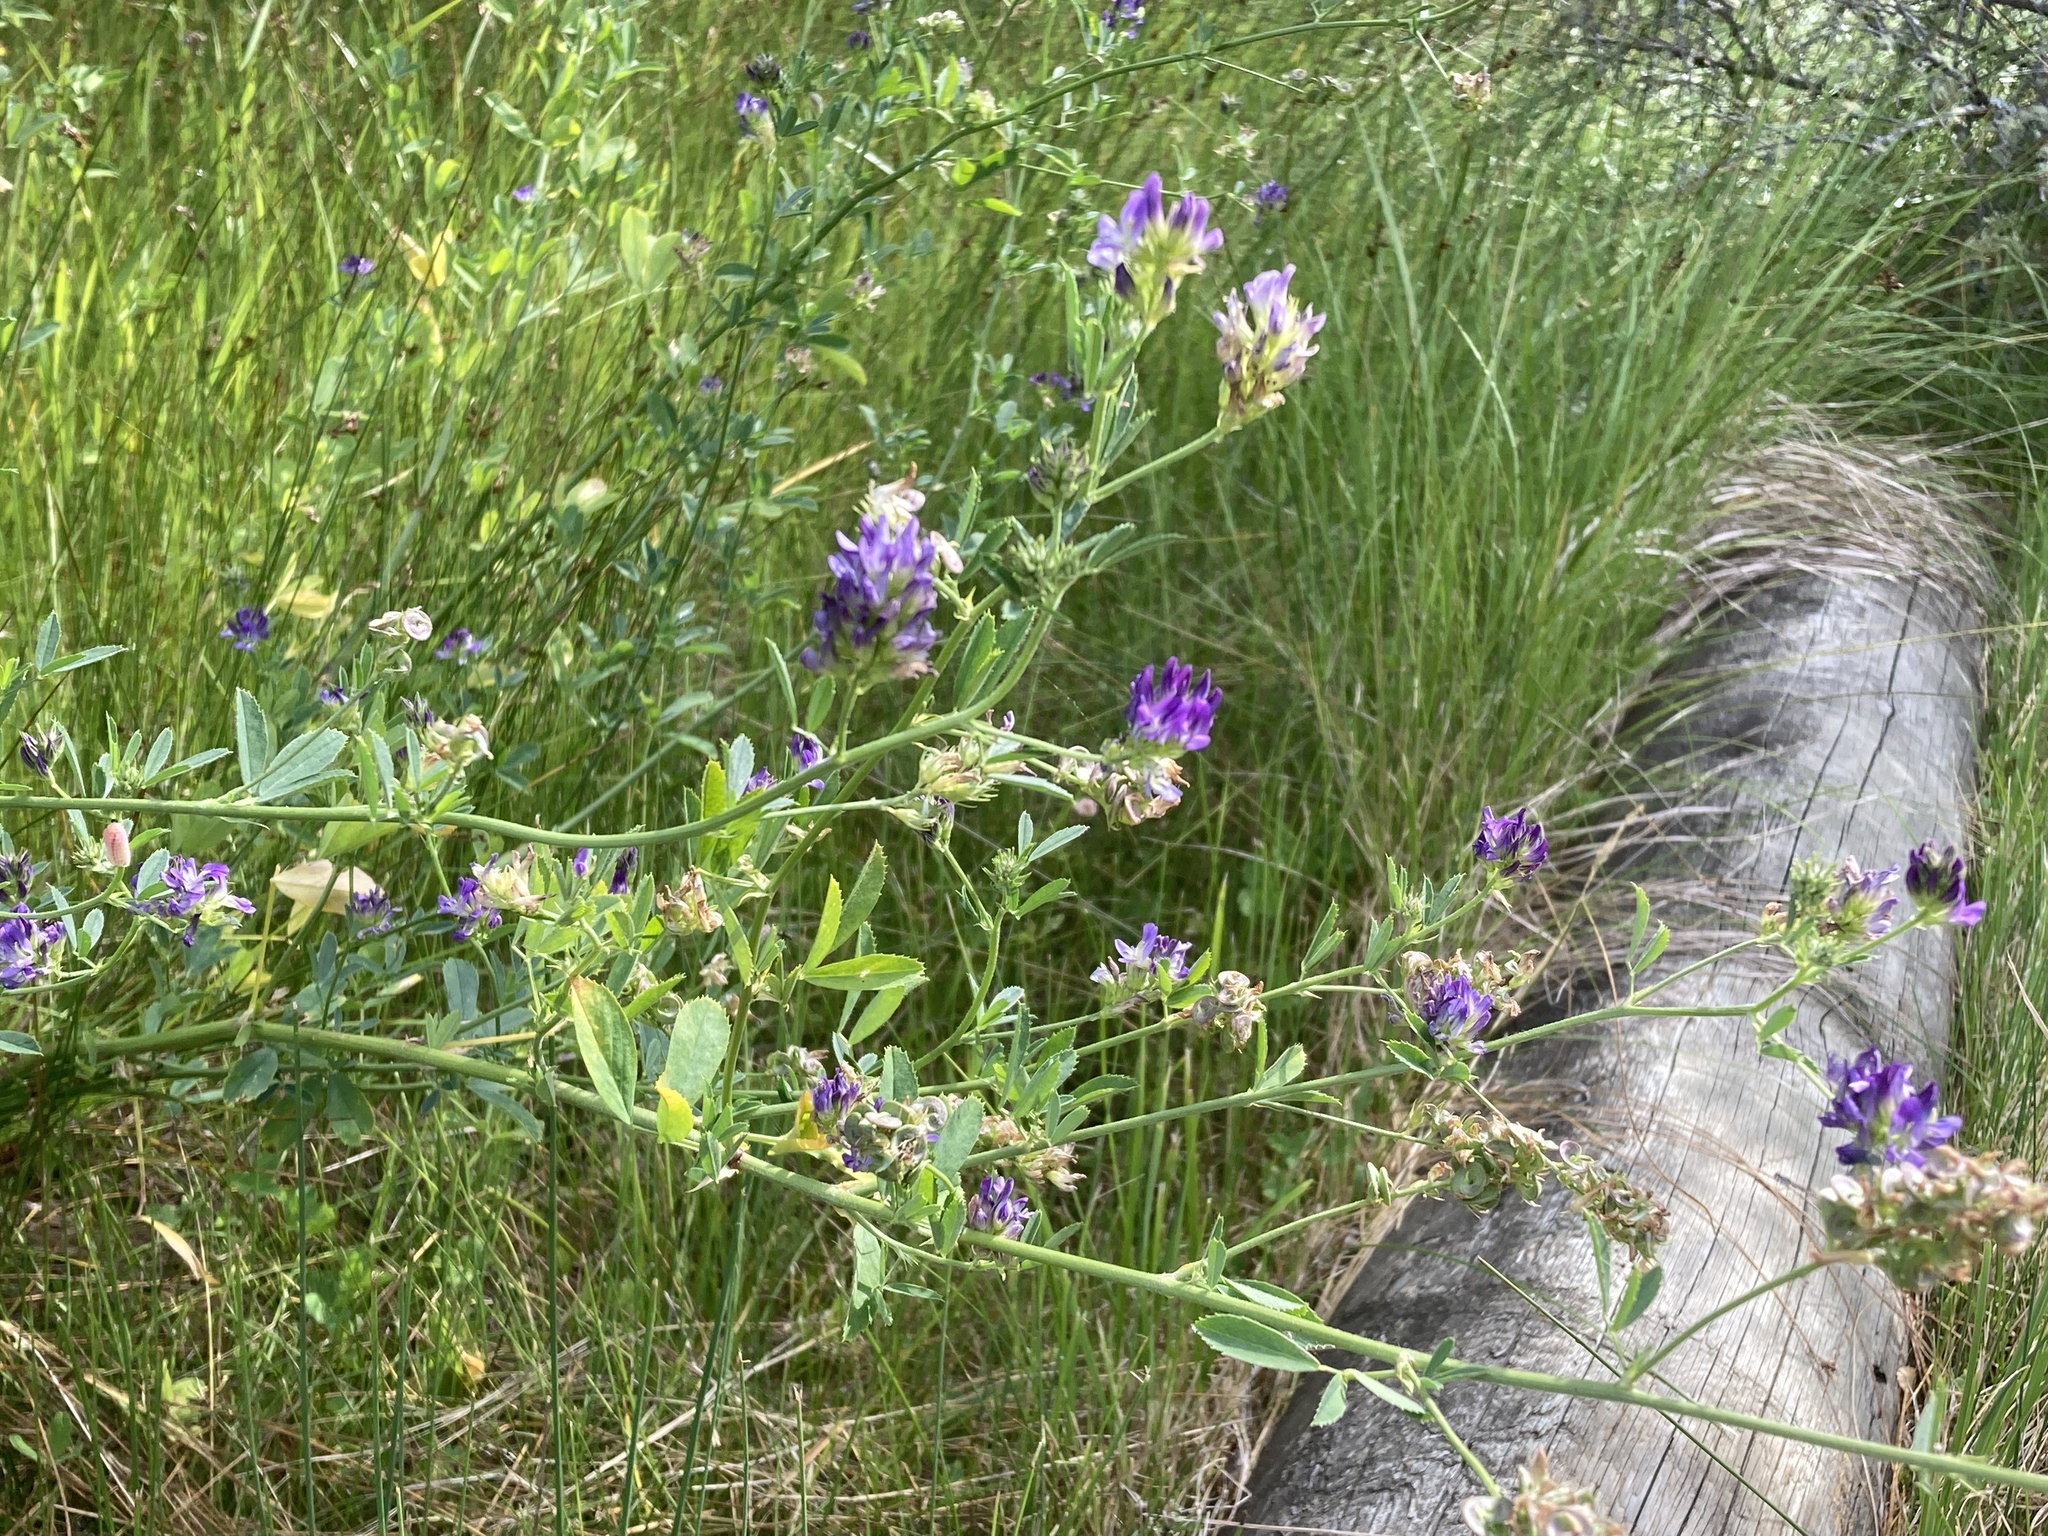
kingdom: Plantae
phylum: Tracheophyta
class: Magnoliopsida
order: Fabales
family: Fabaceae
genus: Medicago
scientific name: Medicago sativa
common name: Alfalfa
